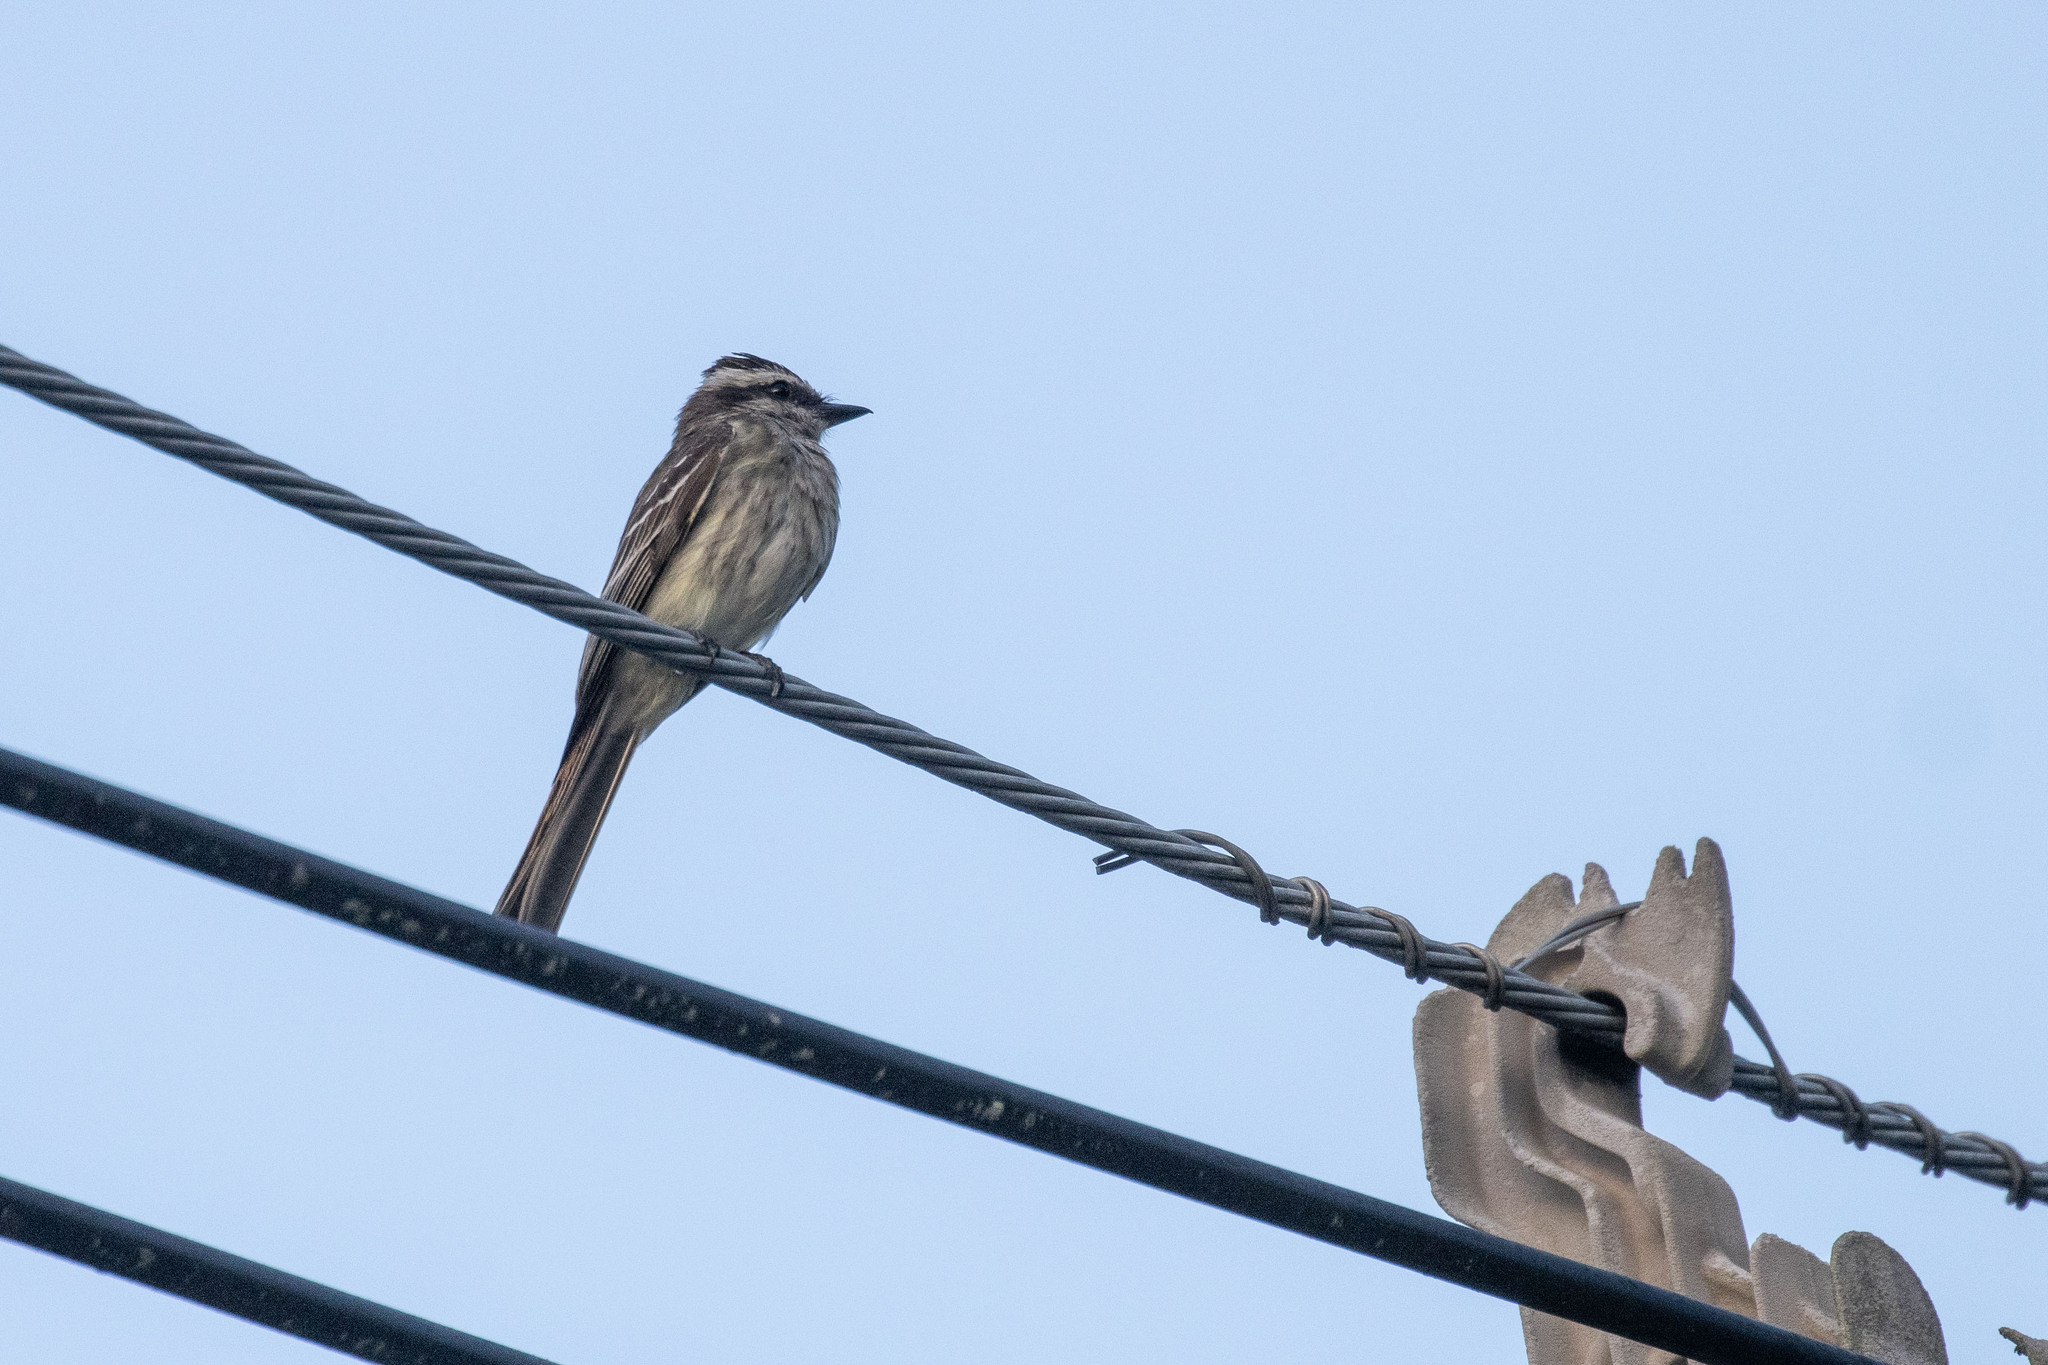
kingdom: Animalia
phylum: Chordata
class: Aves
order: Passeriformes
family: Tyrannidae
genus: Empidonomus
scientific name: Empidonomus varius
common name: Variegated flycatcher
